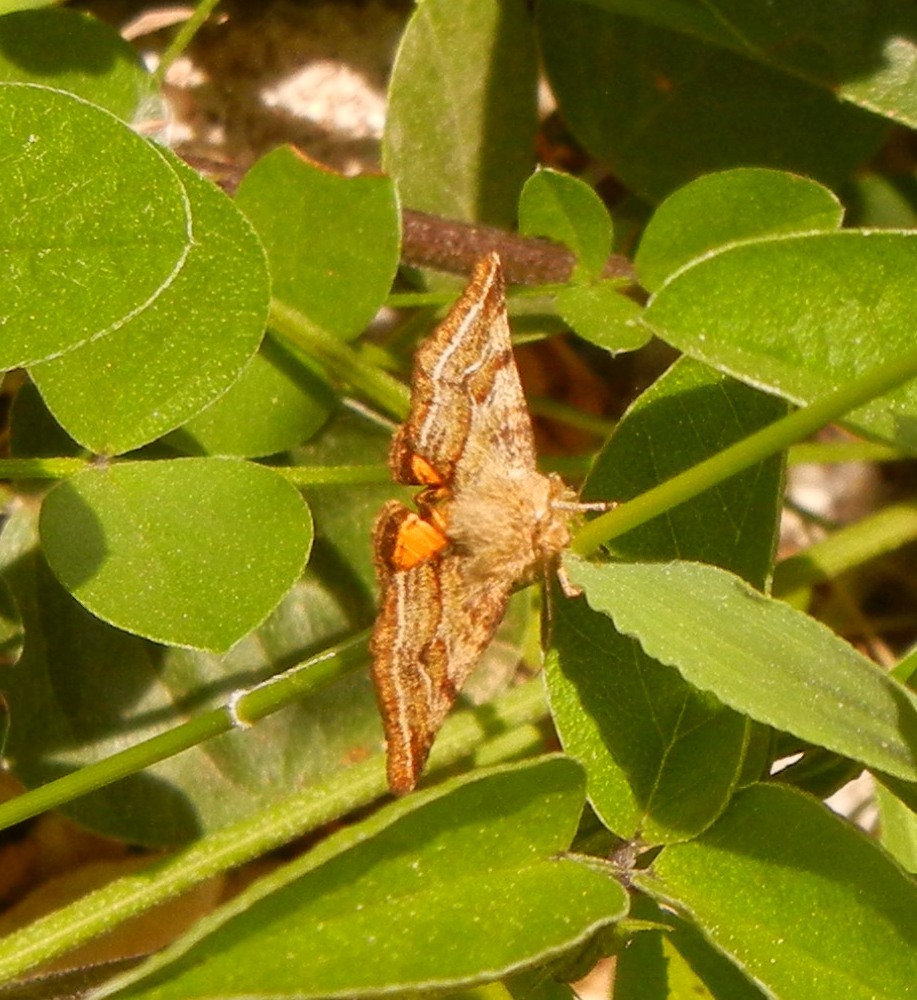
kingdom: Animalia
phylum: Arthropoda
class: Insecta
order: Lepidoptera
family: Noctuidae
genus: Synthymia
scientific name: Synthymia fixa
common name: Goldwing
